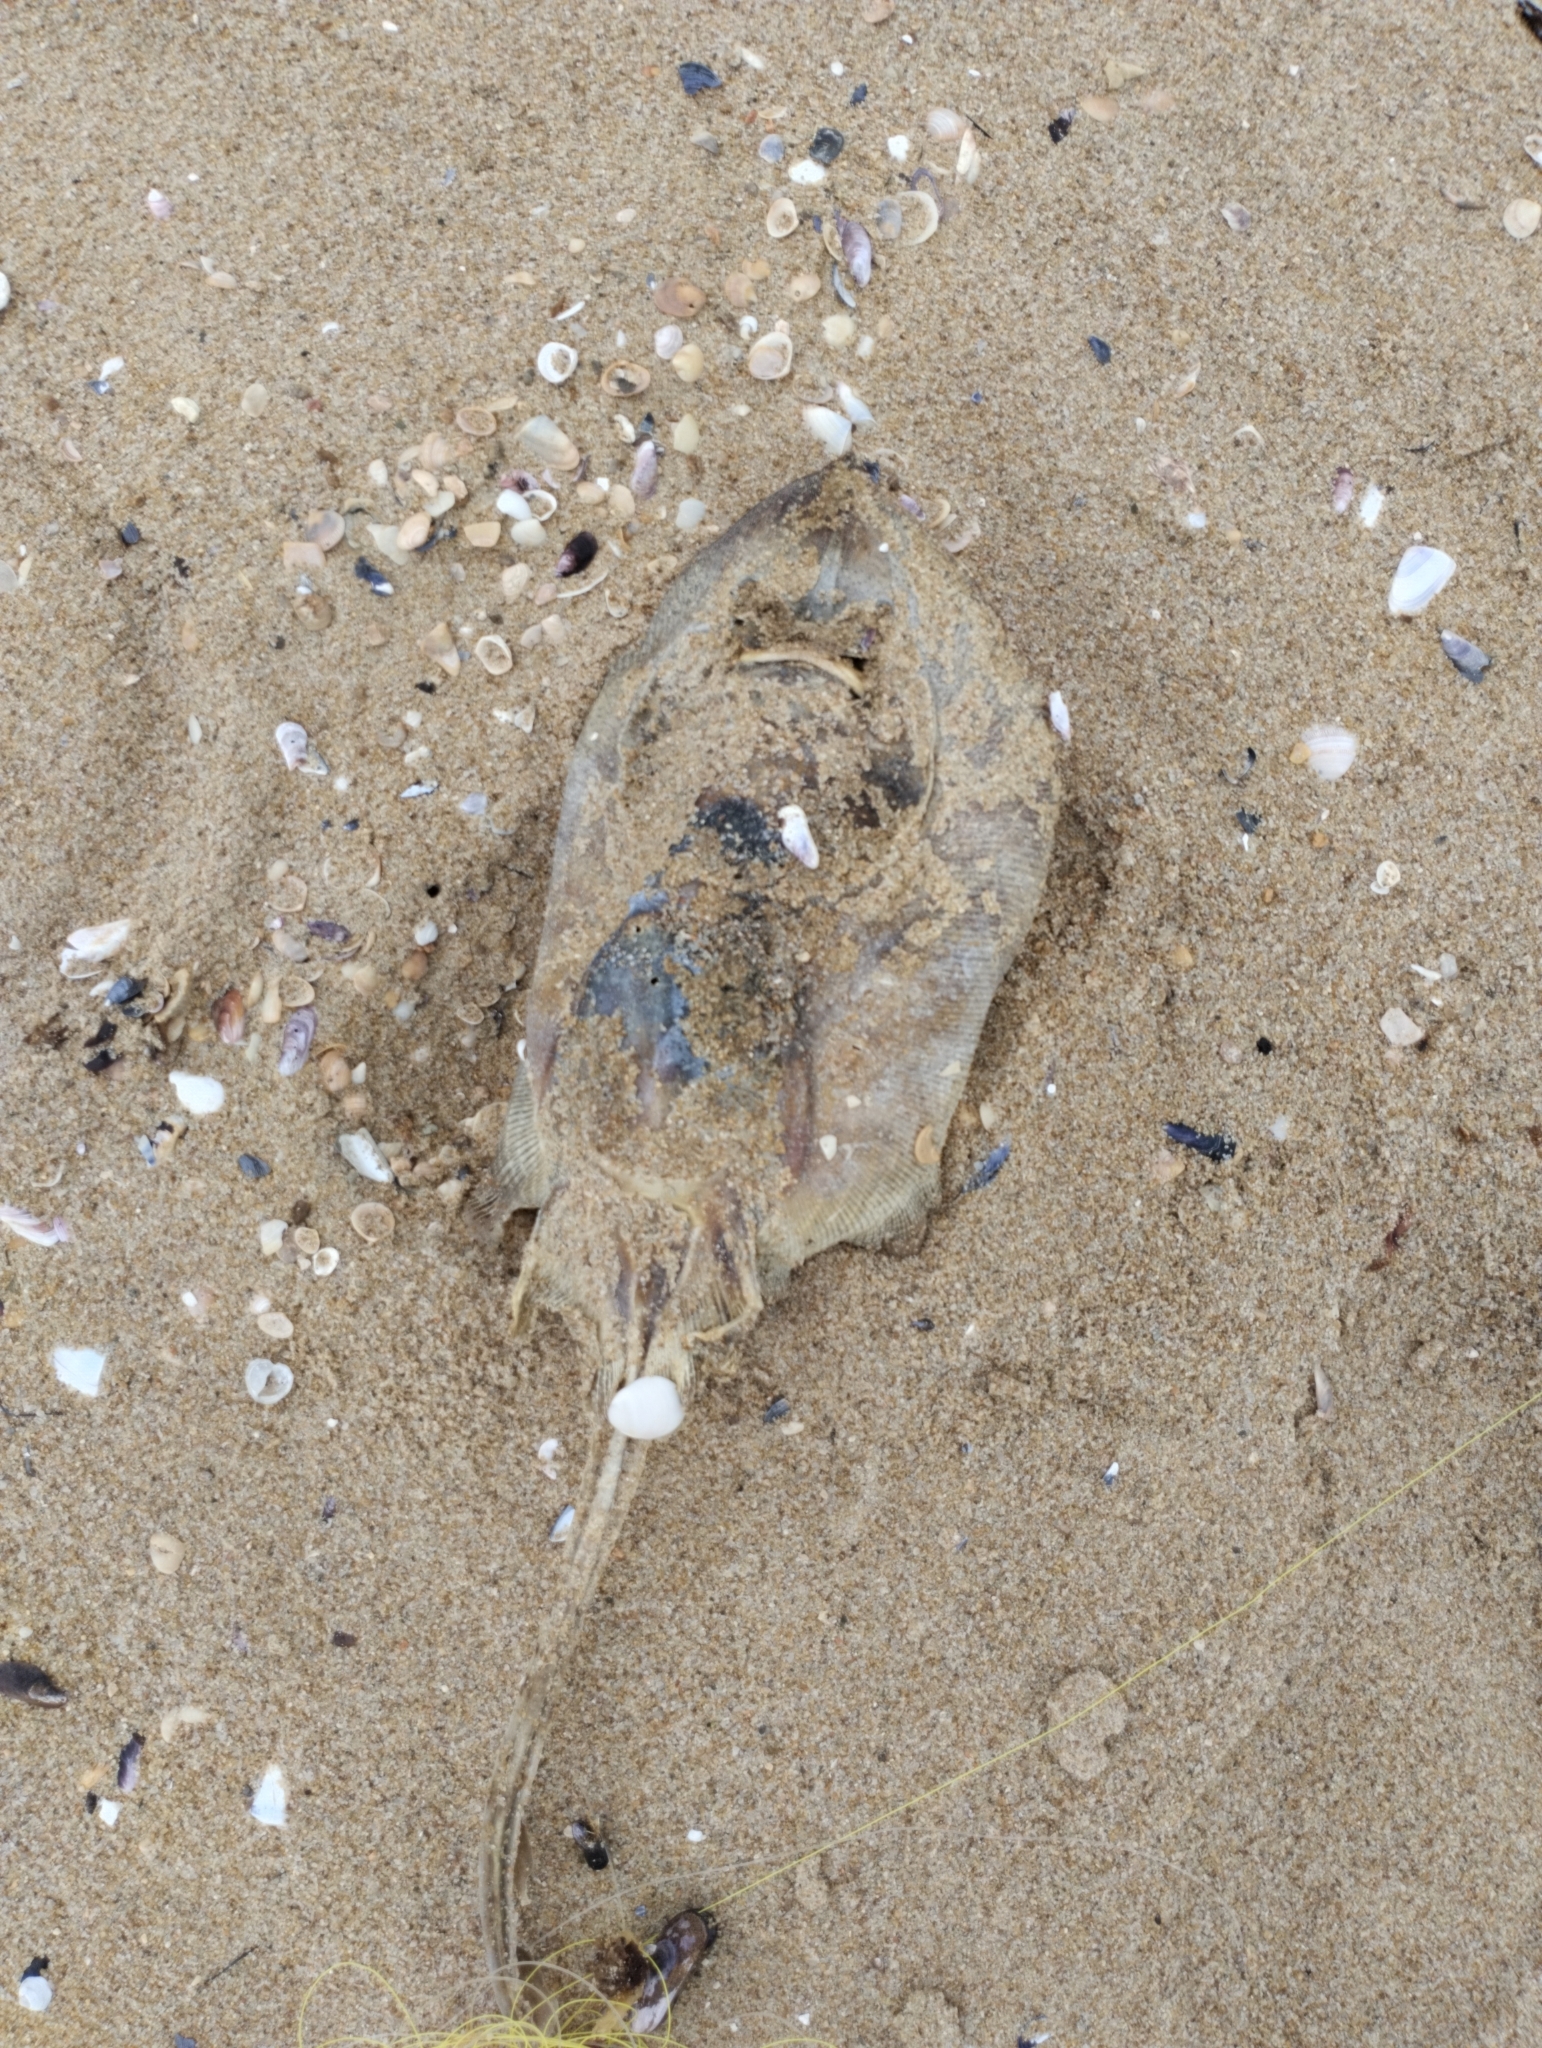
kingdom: Animalia
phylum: Chordata
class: Elasmobranchii
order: Rajiformes
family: Arhynchobatidae
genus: Atlantoraja
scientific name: Atlantoraja castelnaui
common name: Spotback skate
